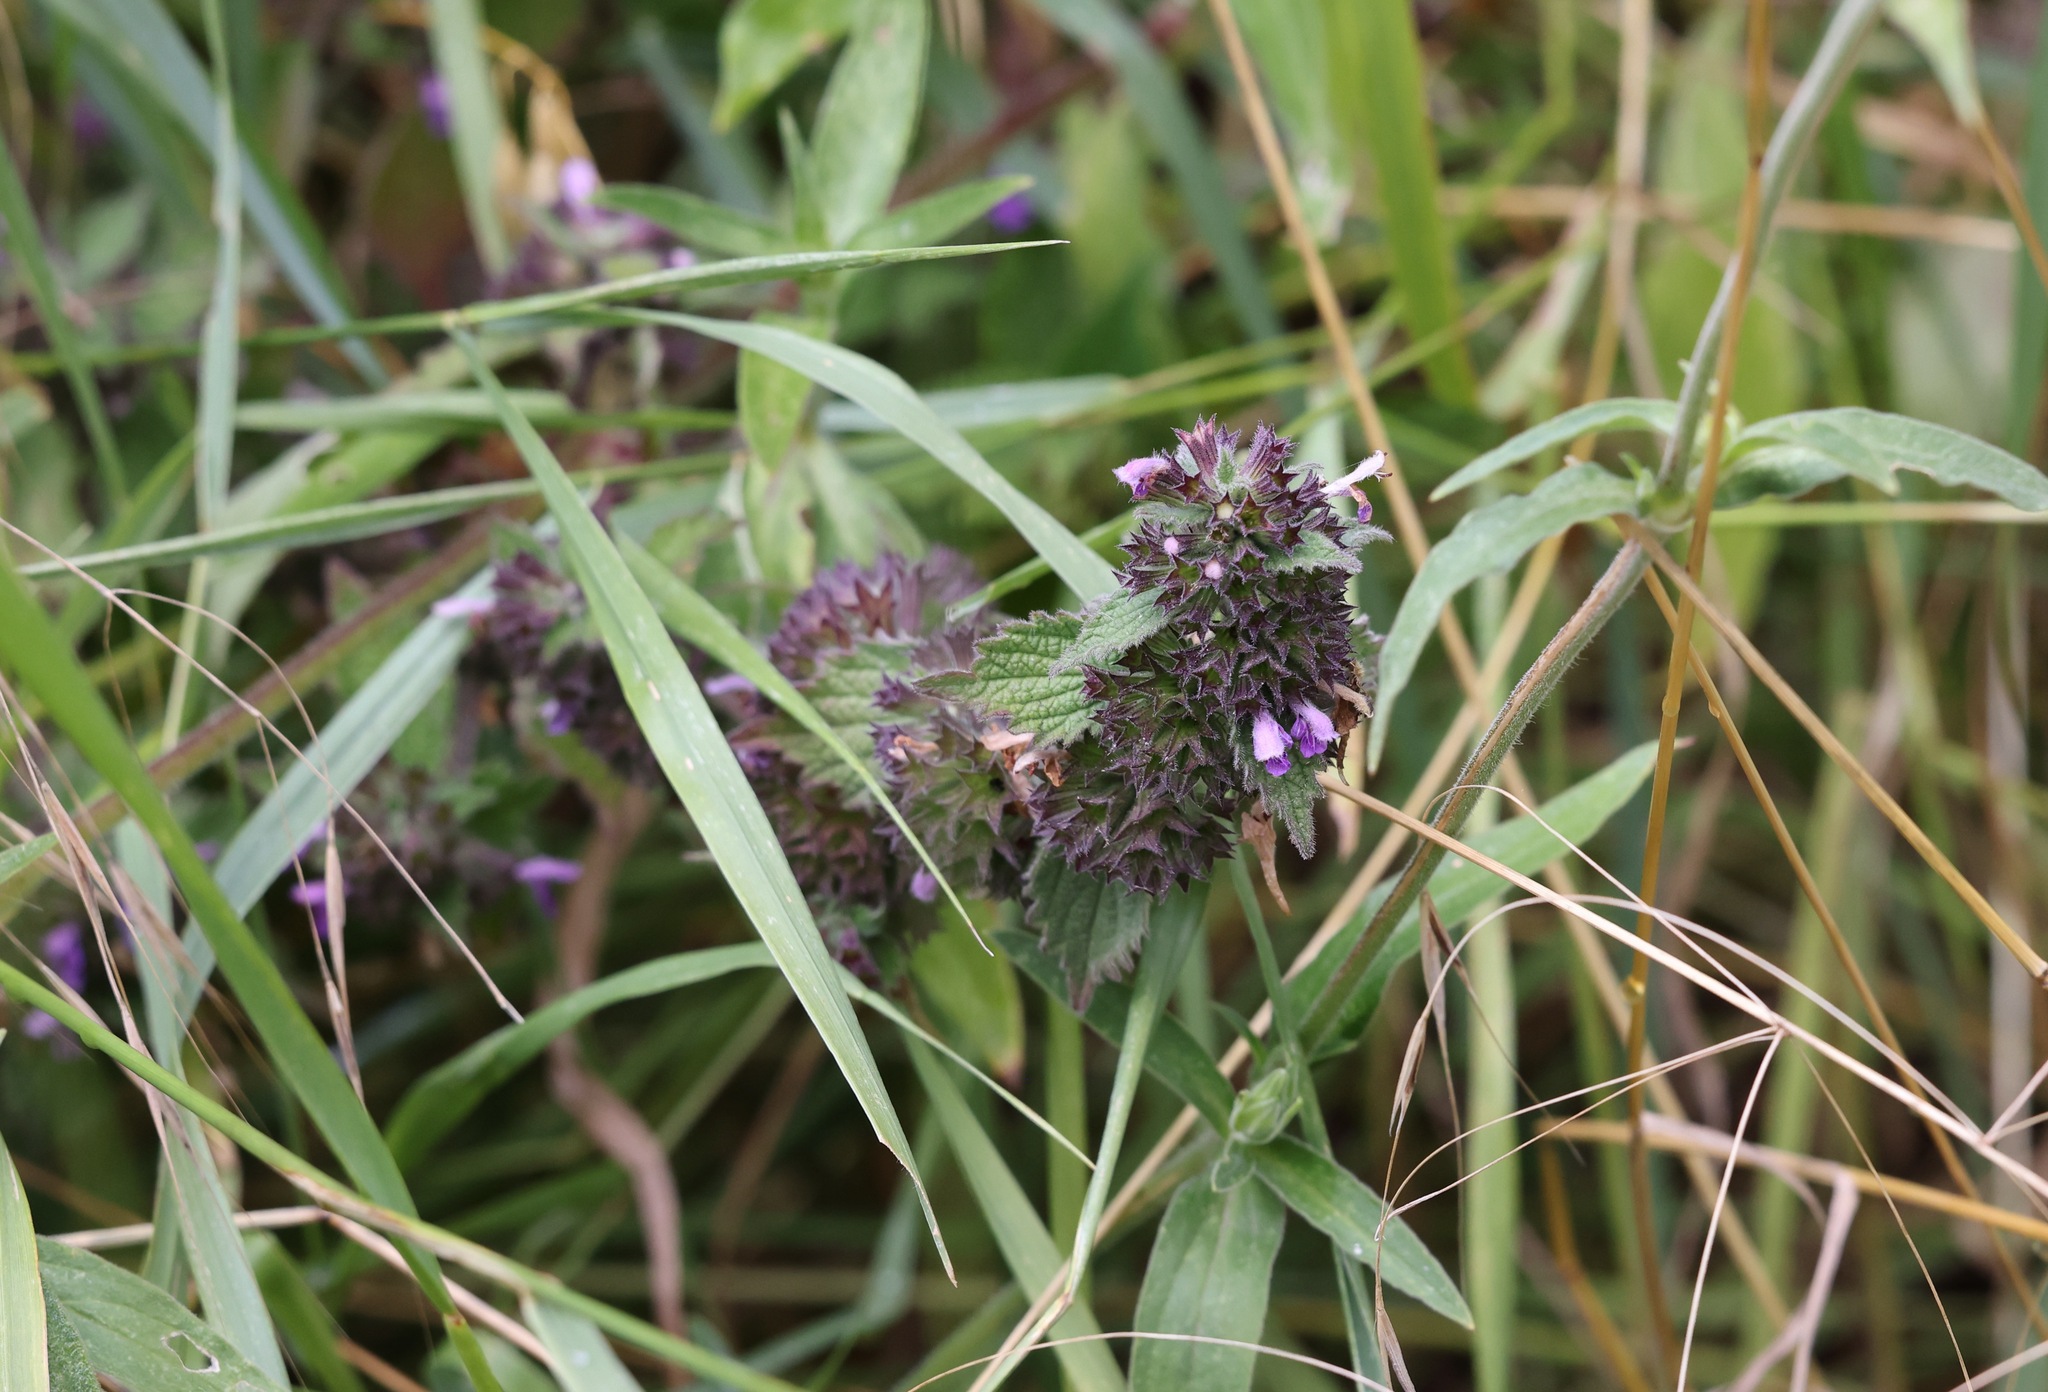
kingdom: Plantae
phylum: Tracheophyta
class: Magnoliopsida
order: Lamiales
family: Lamiaceae
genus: Ballota
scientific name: Ballota nigra
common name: Black horehound
